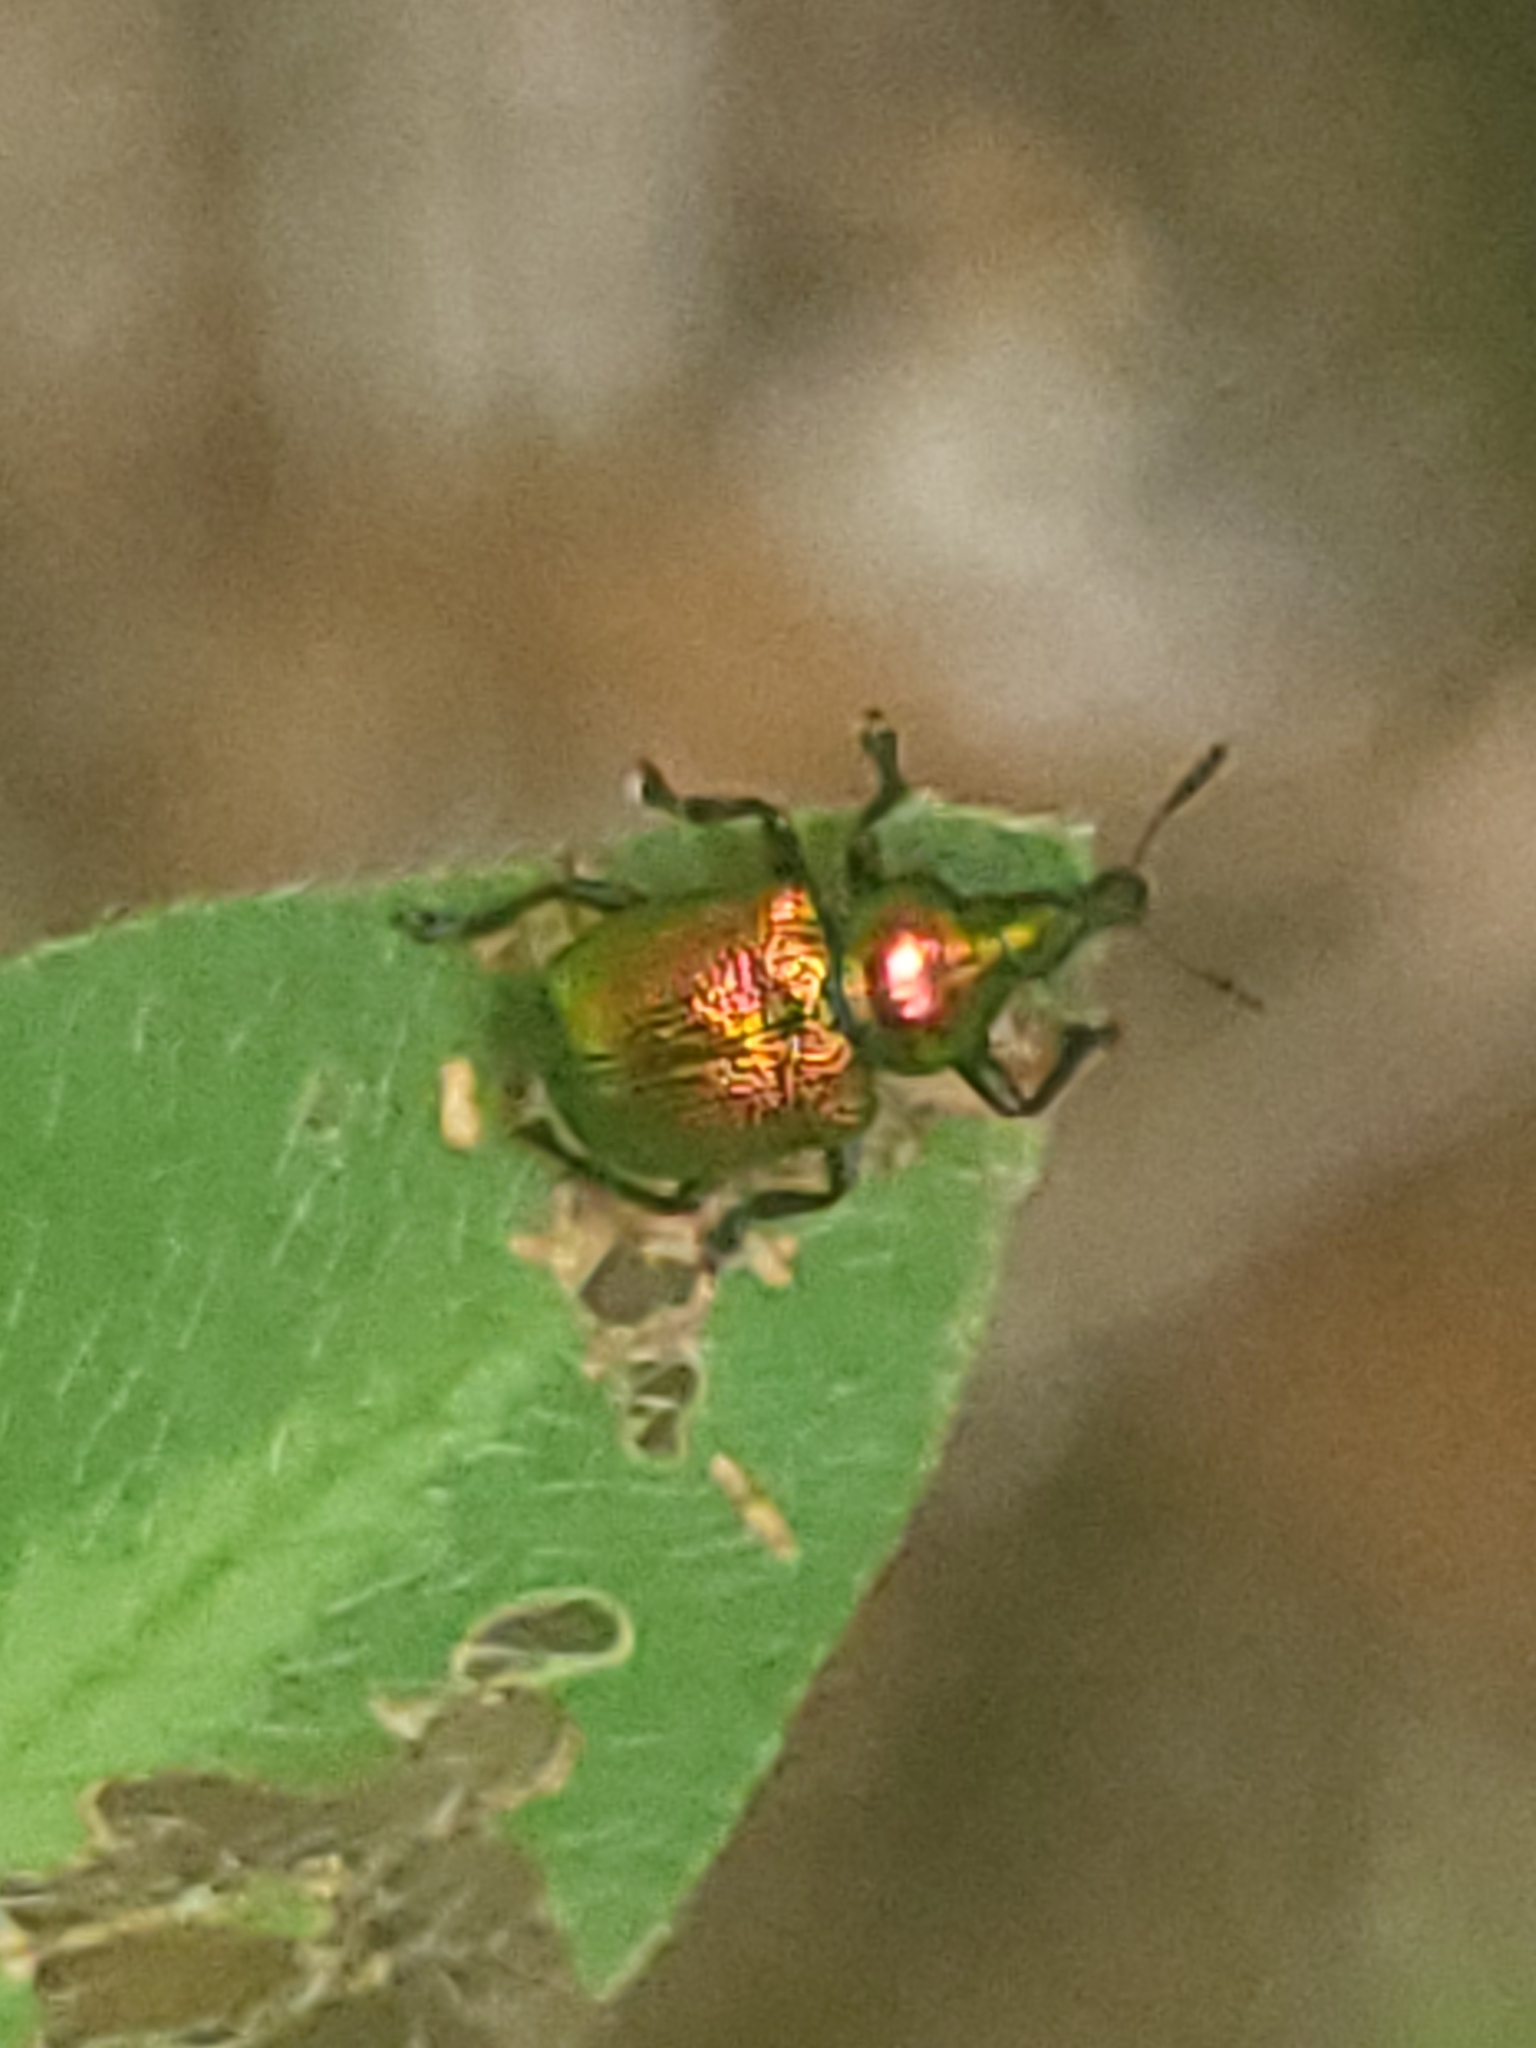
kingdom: Animalia
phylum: Arthropoda
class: Insecta
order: Coleoptera
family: Attelabidae
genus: Byctiscus
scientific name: Byctiscus populi
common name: Leaf-rolling weevil
